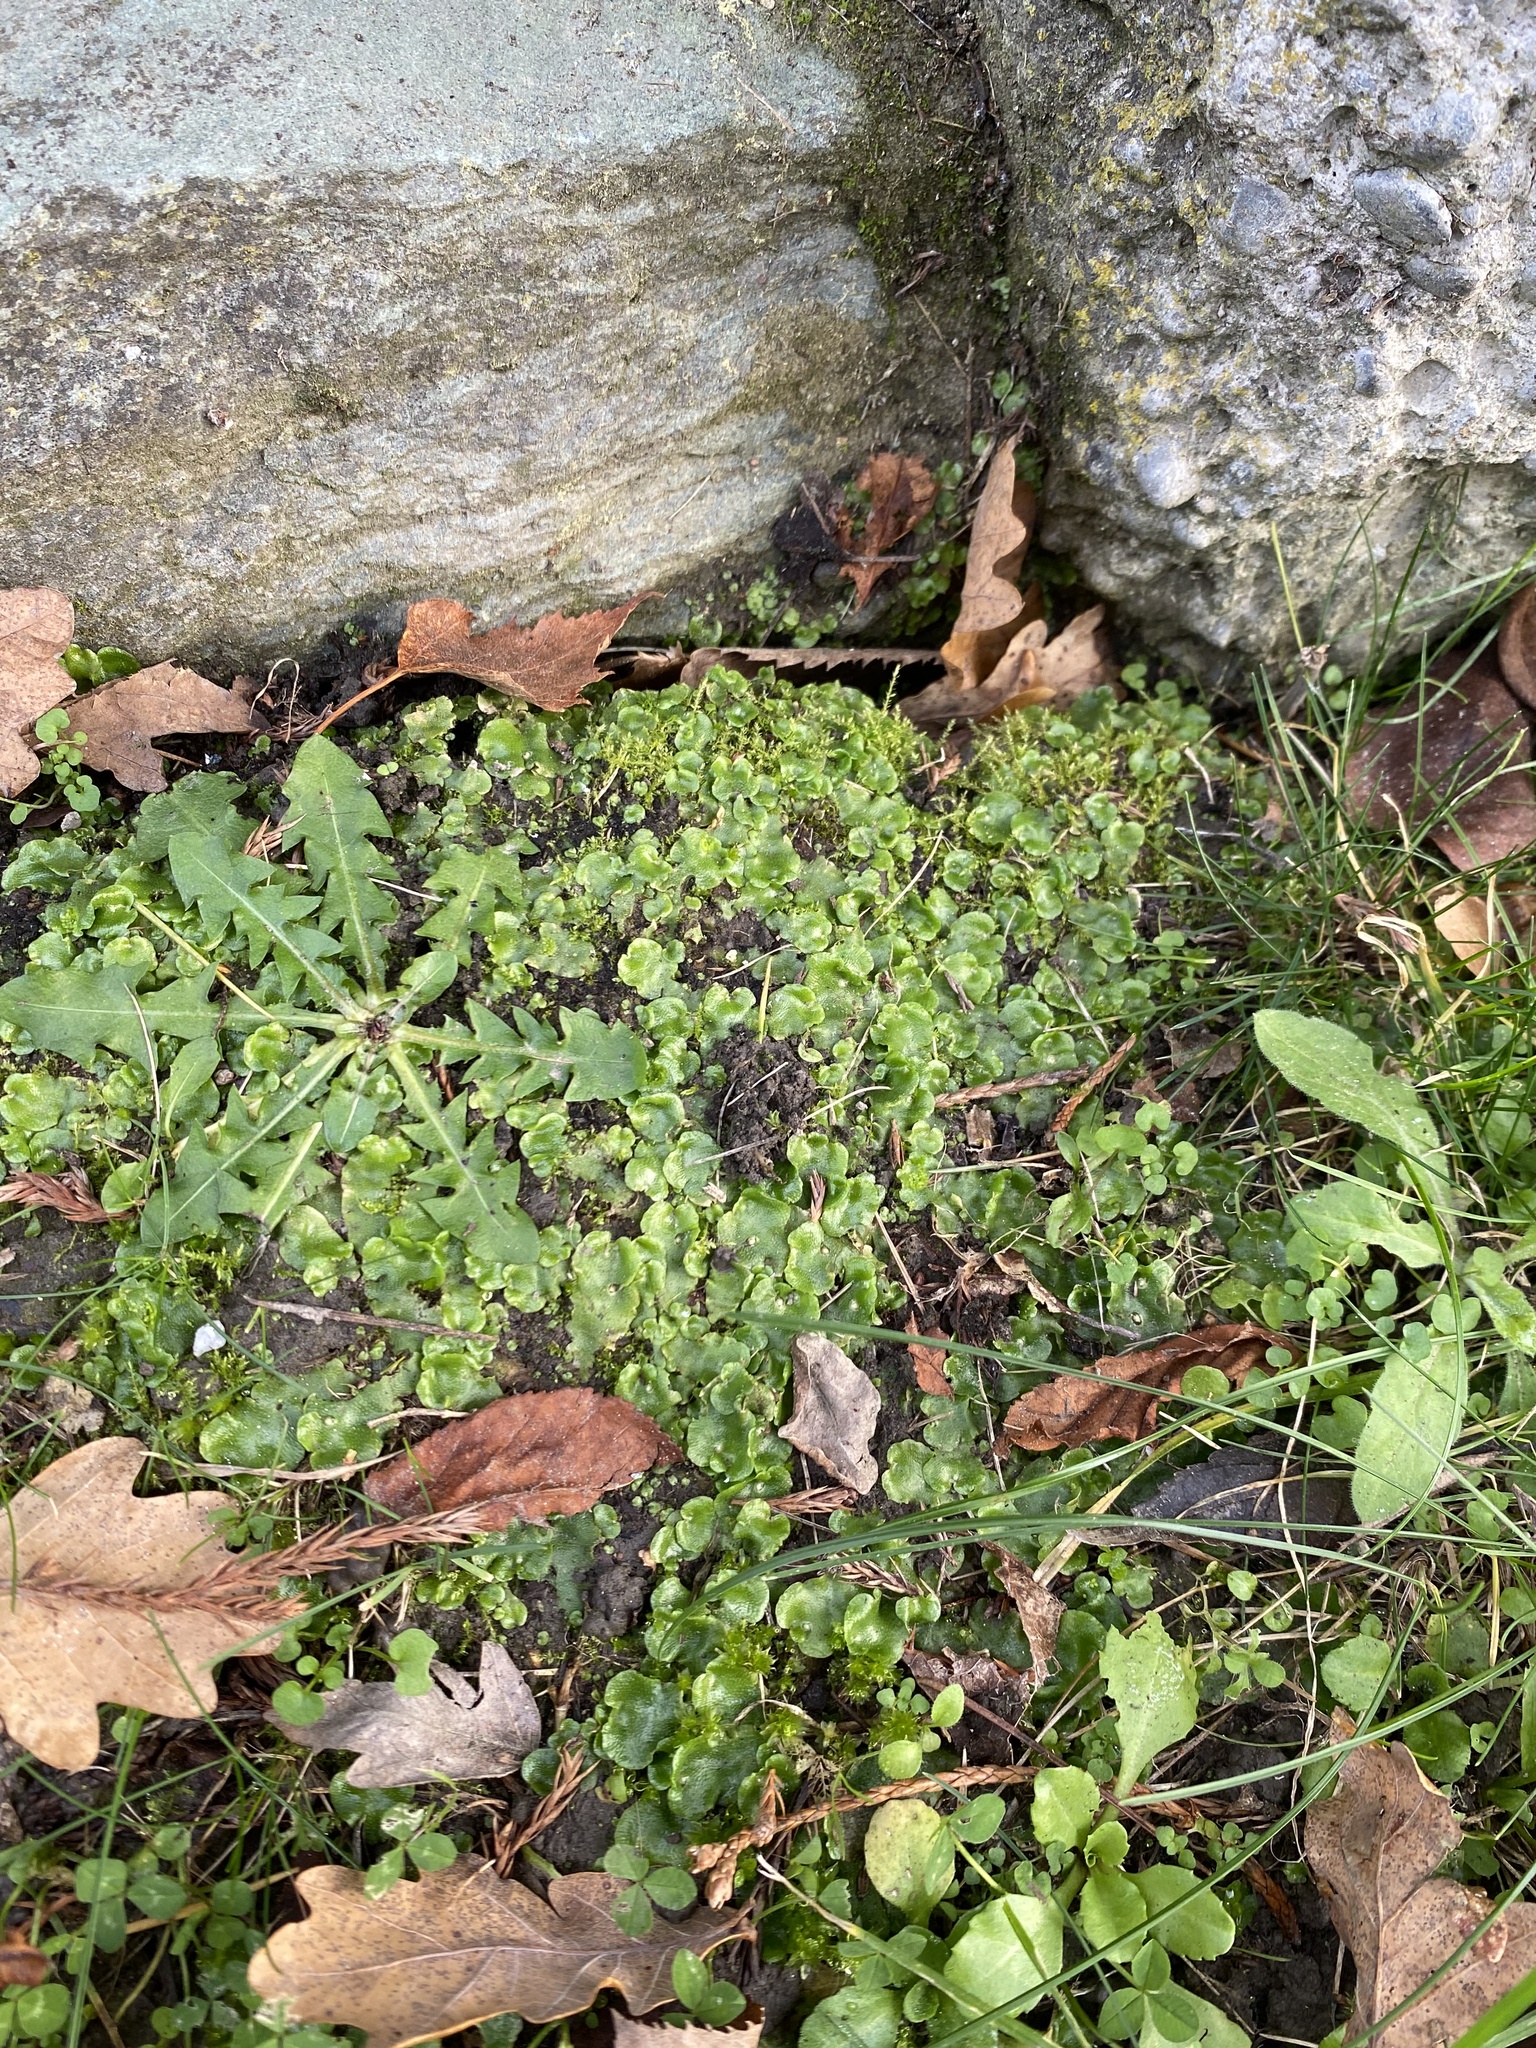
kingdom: Plantae
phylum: Marchantiophyta
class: Marchantiopsida
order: Lunulariales
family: Lunulariaceae
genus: Lunularia
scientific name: Lunularia cruciata
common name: Crescent-cup liverwort
